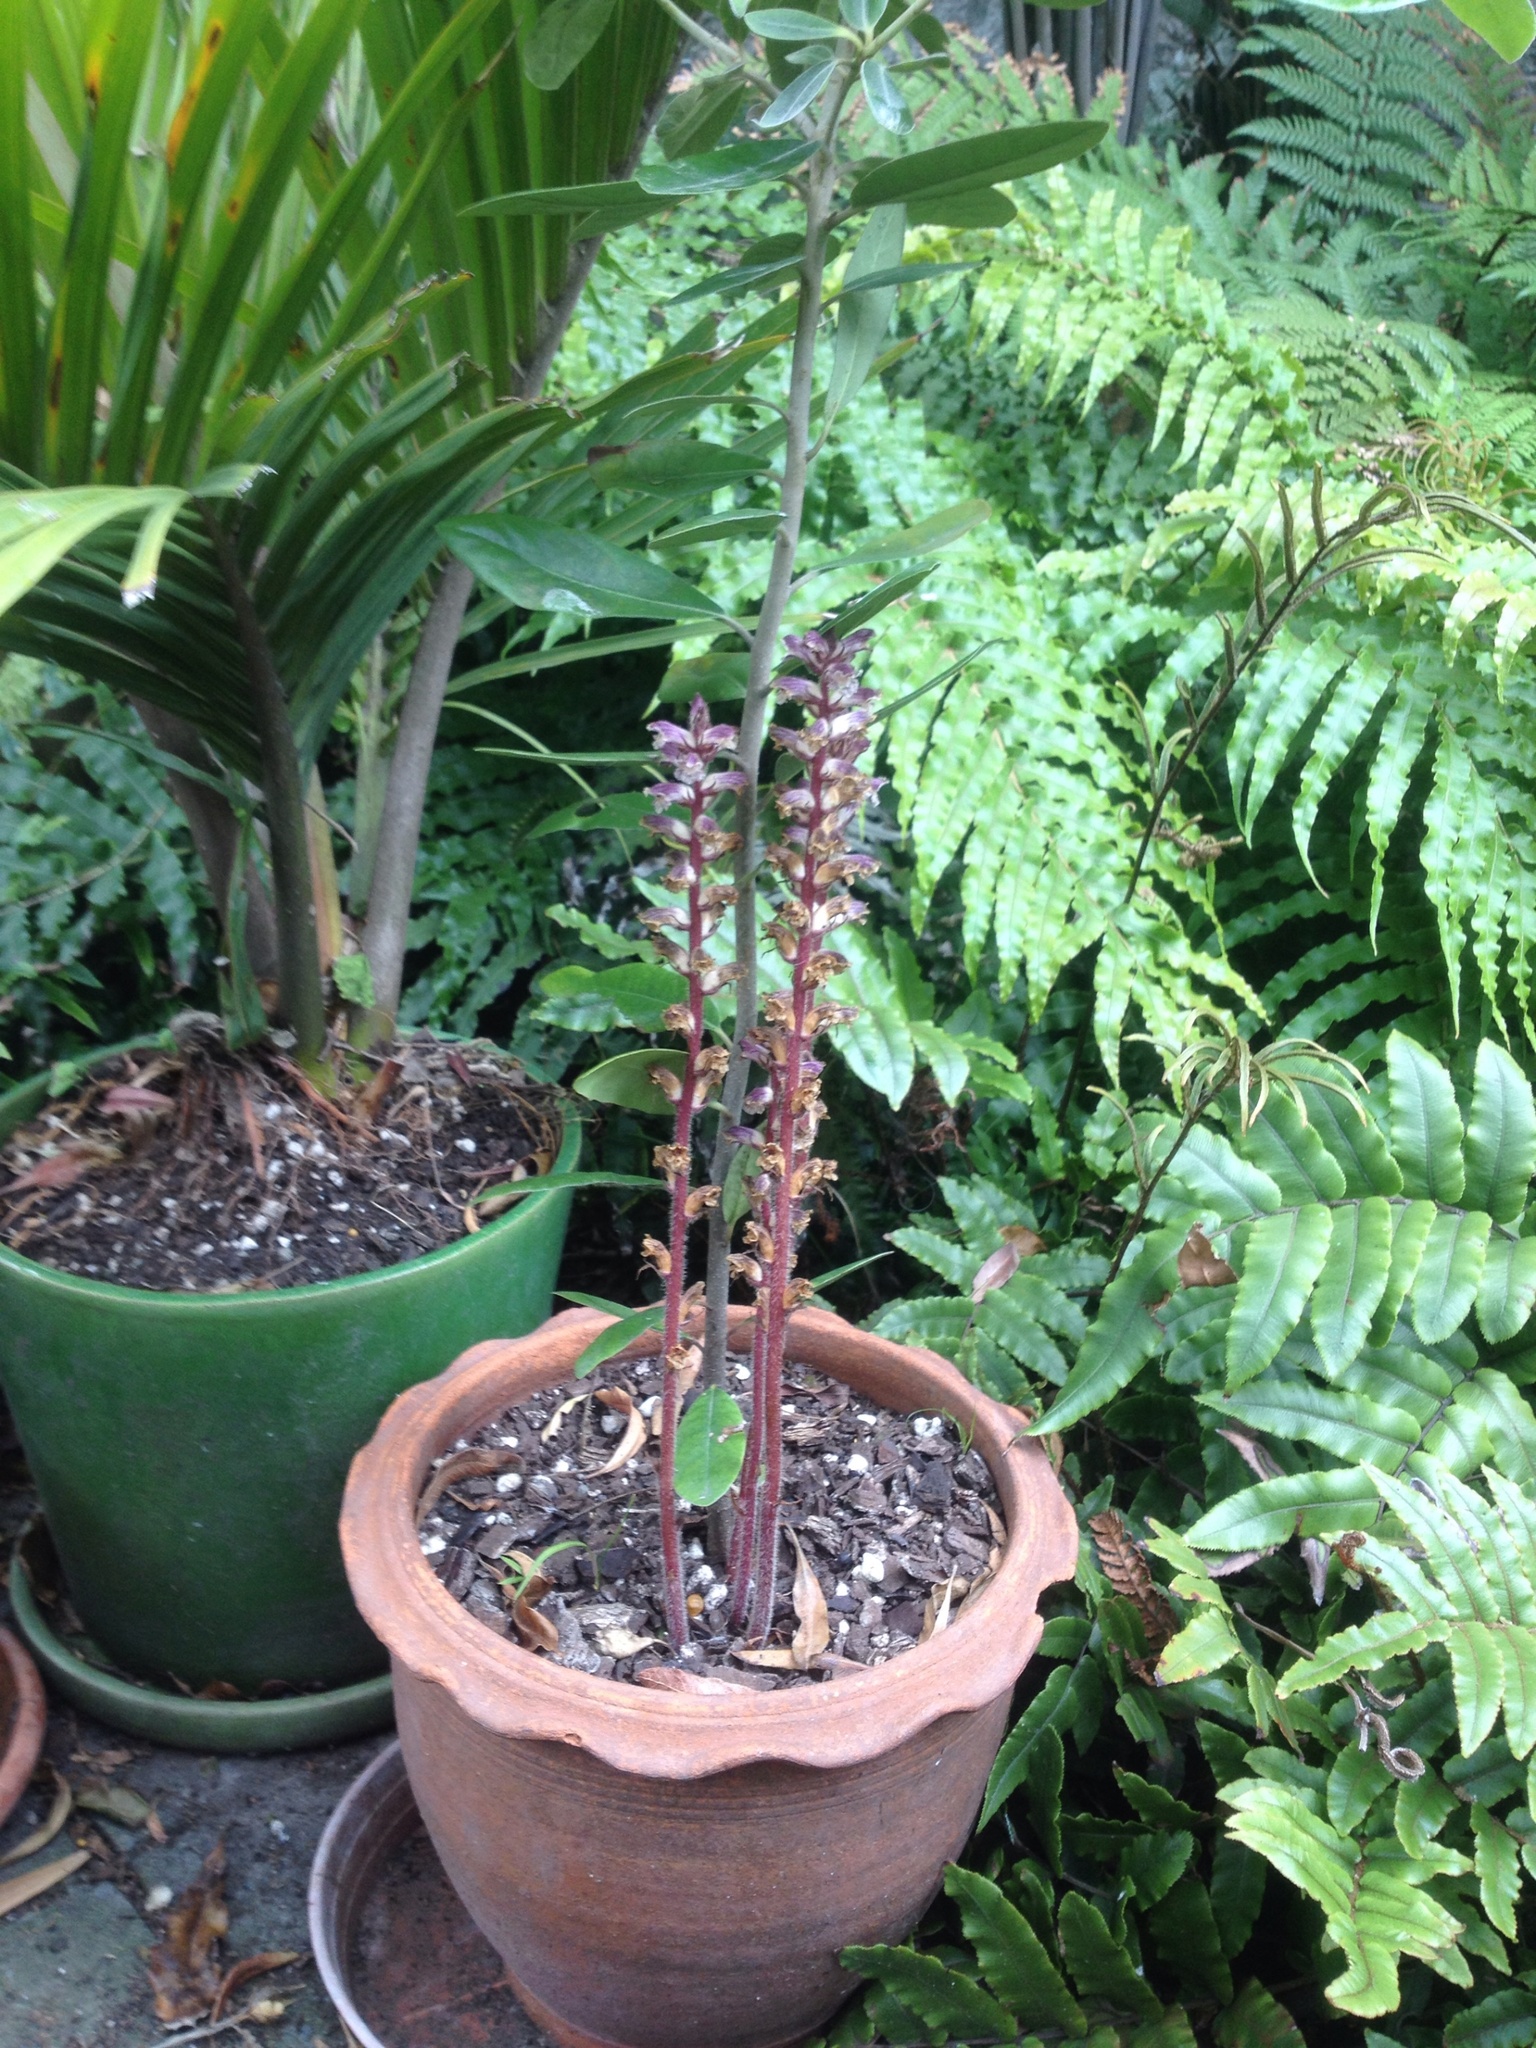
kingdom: Plantae
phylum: Tracheophyta
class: Magnoliopsida
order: Lamiales
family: Orobanchaceae
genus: Orobanche
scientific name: Orobanche minor
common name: Common broomrape
